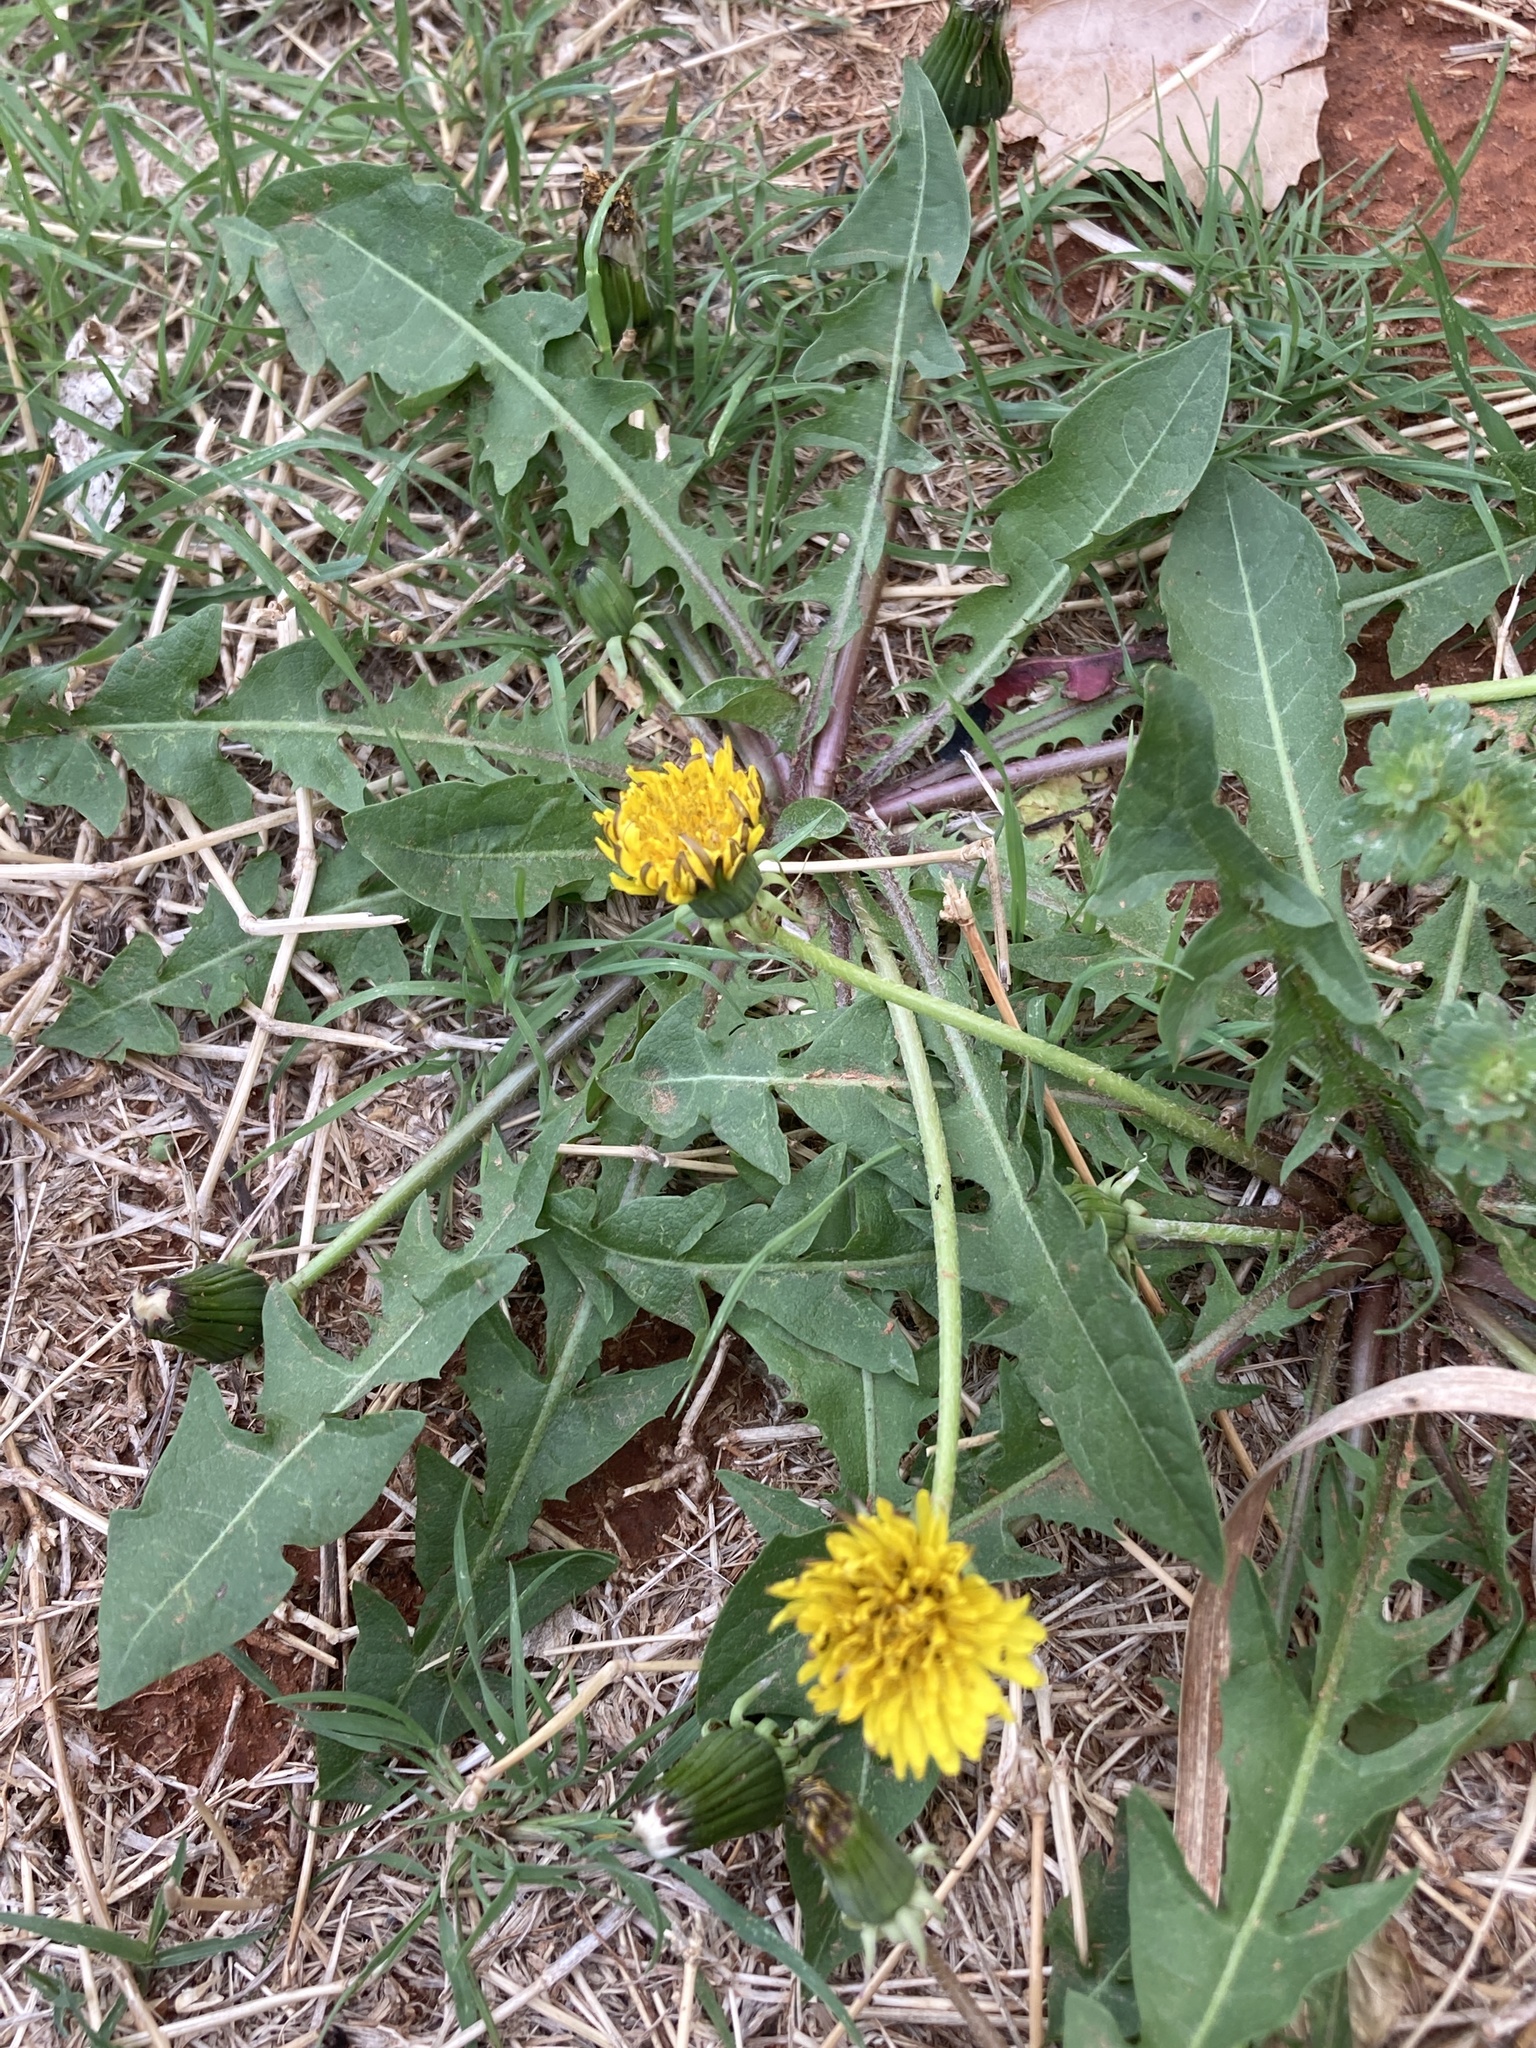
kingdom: Plantae
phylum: Tracheophyta
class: Magnoliopsida
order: Asterales
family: Asteraceae
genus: Taraxacum
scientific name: Taraxacum officinale
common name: Common dandelion
